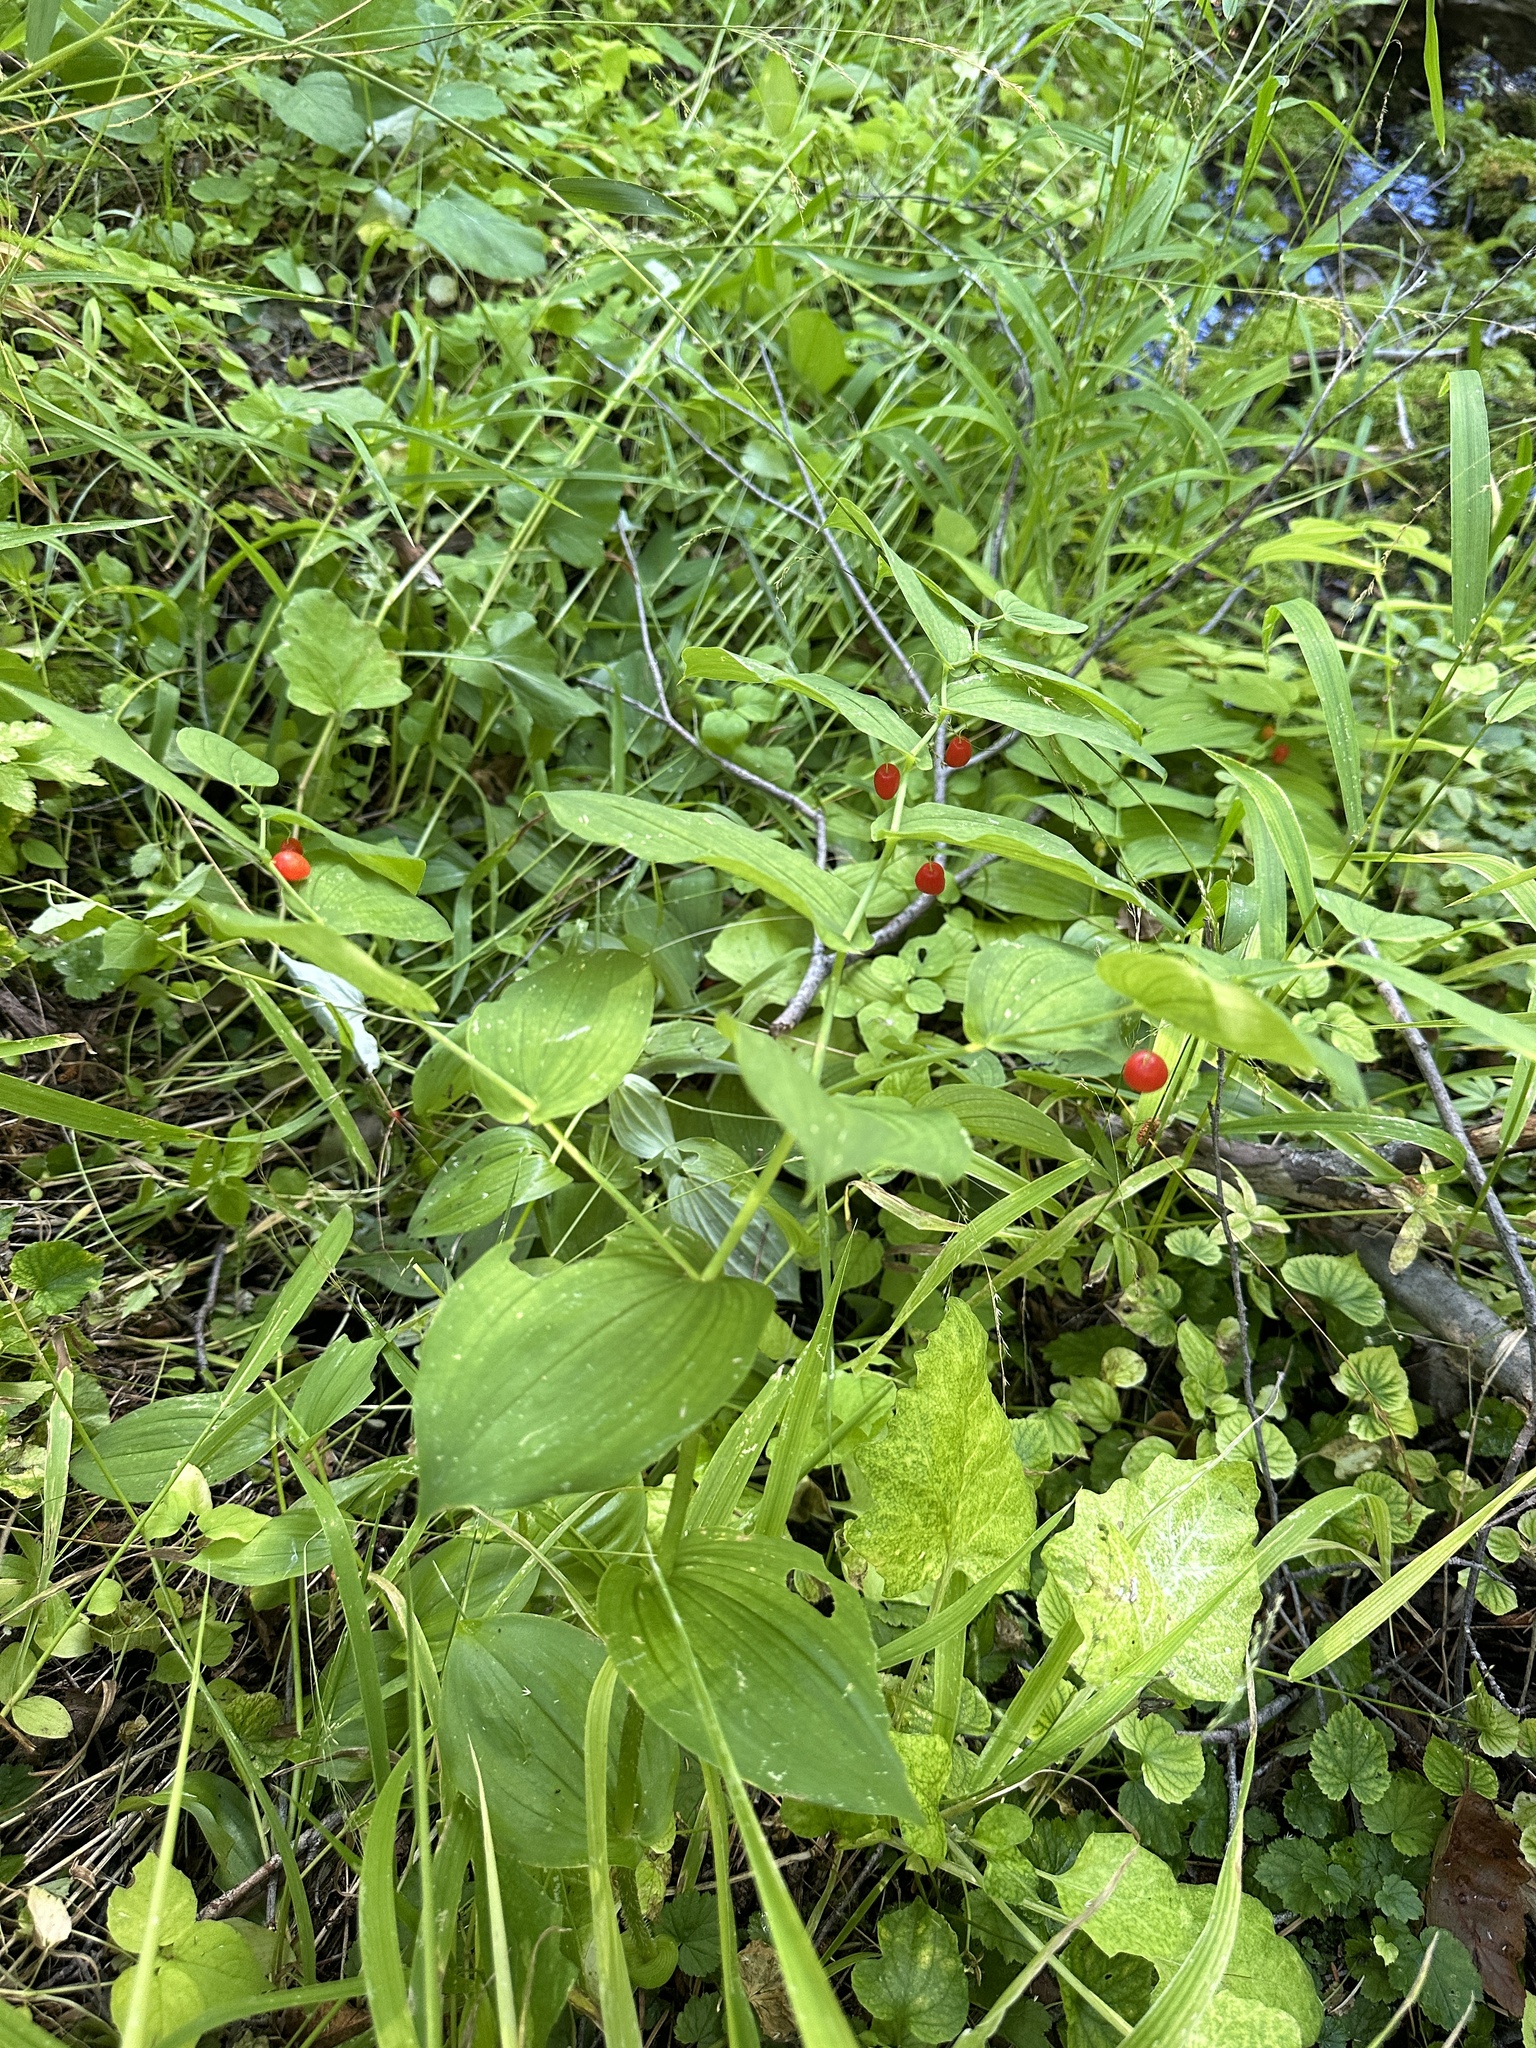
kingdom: Plantae
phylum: Tracheophyta
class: Liliopsida
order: Liliales
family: Liliaceae
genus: Streptopus
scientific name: Streptopus amplexifolius
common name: Clasp twisted stalk
